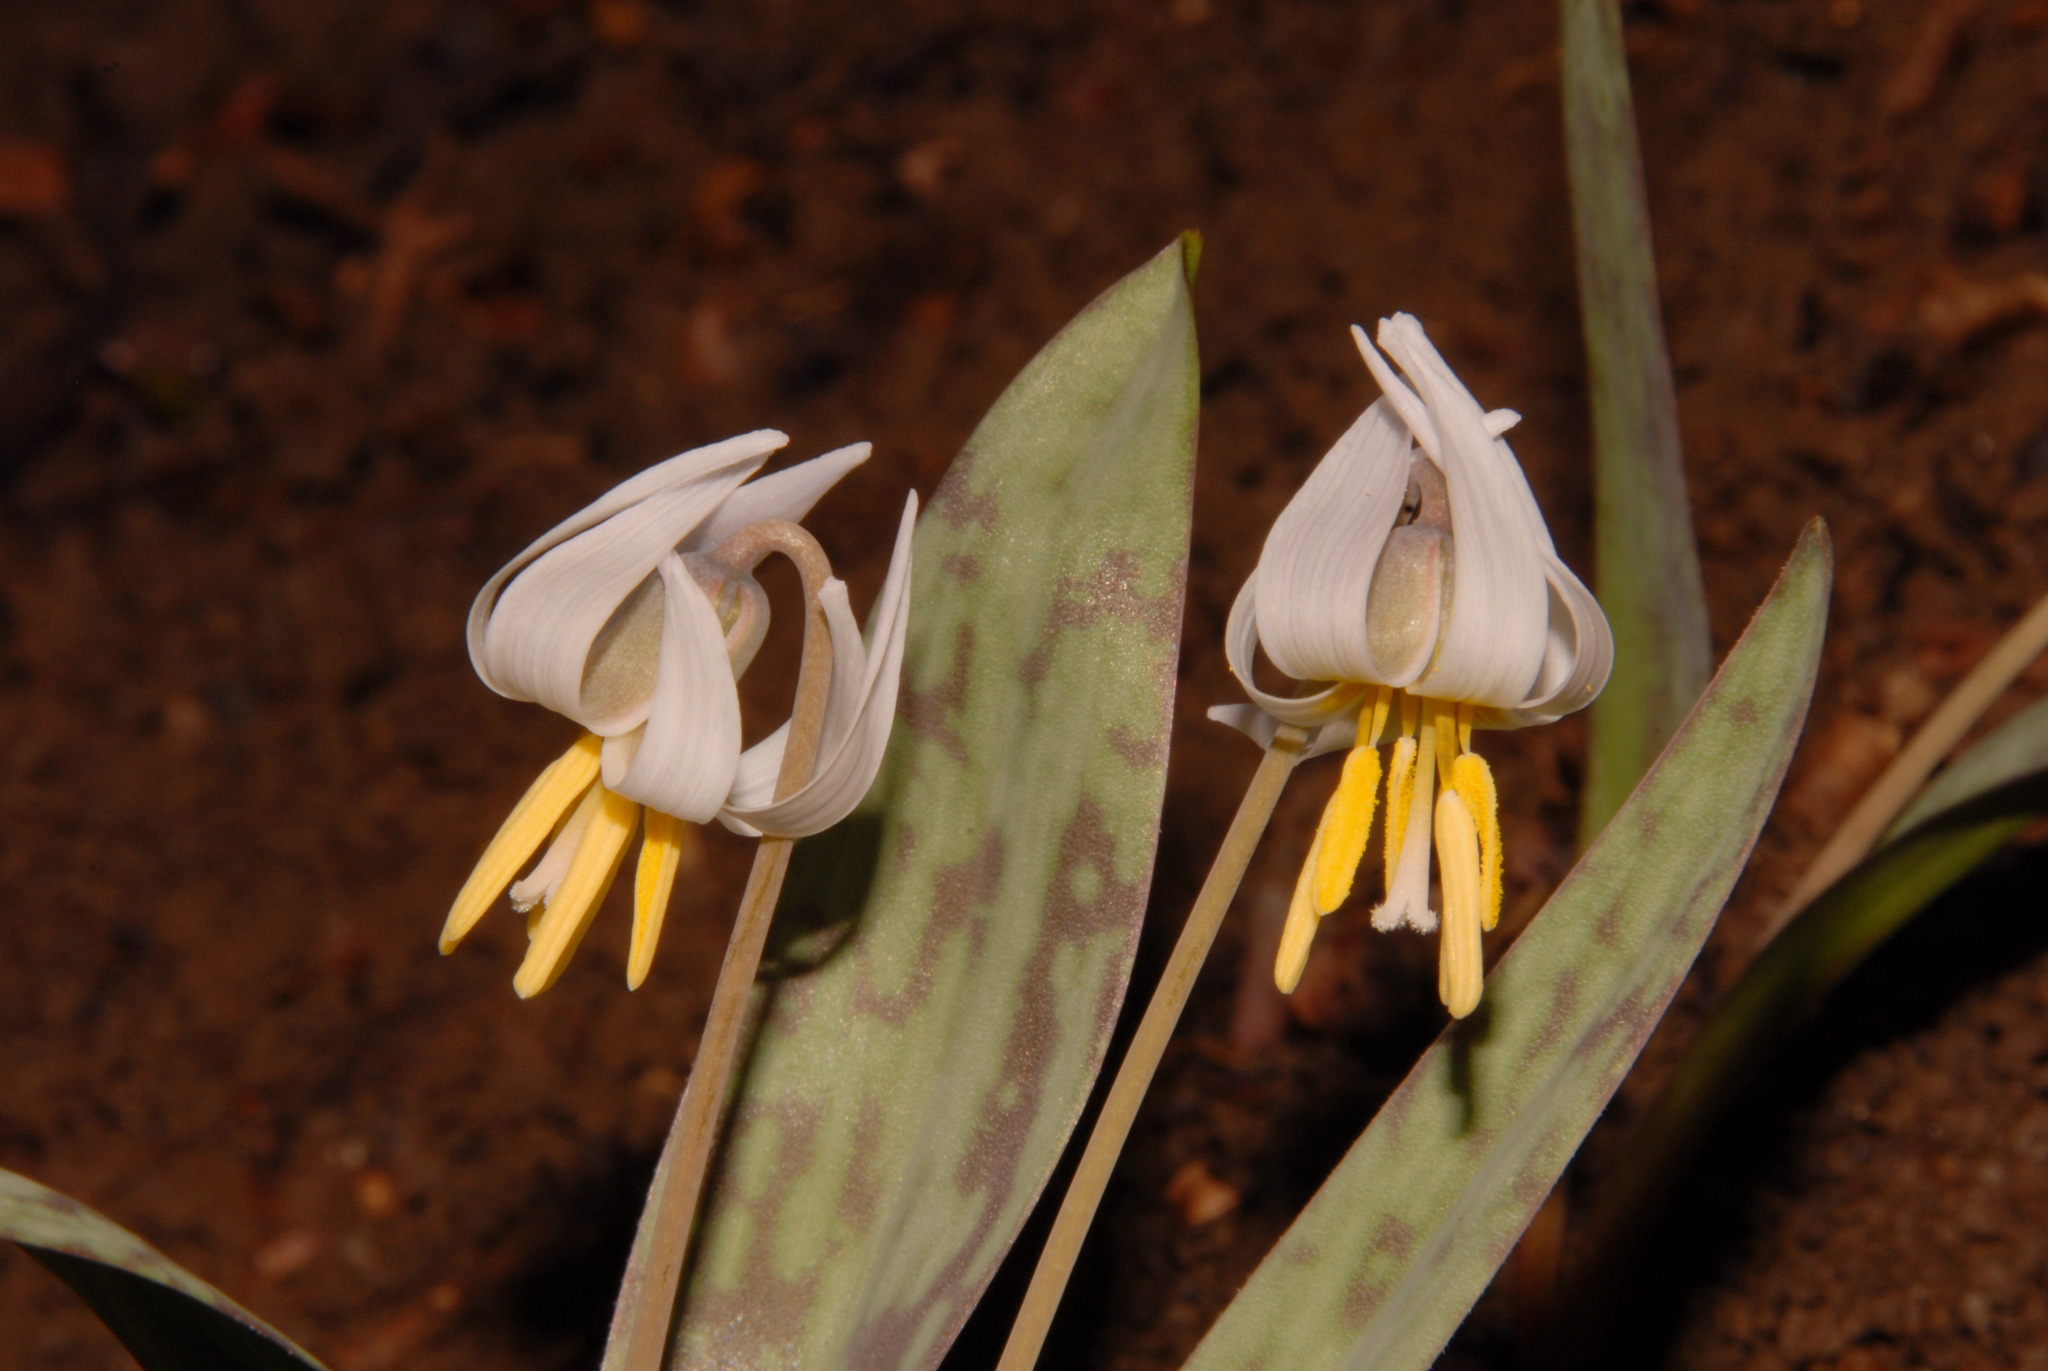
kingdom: Plantae
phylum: Tracheophyta
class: Liliopsida
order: Liliales
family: Liliaceae
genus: Erythronium
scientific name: Erythronium albidum
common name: White trout-lily
